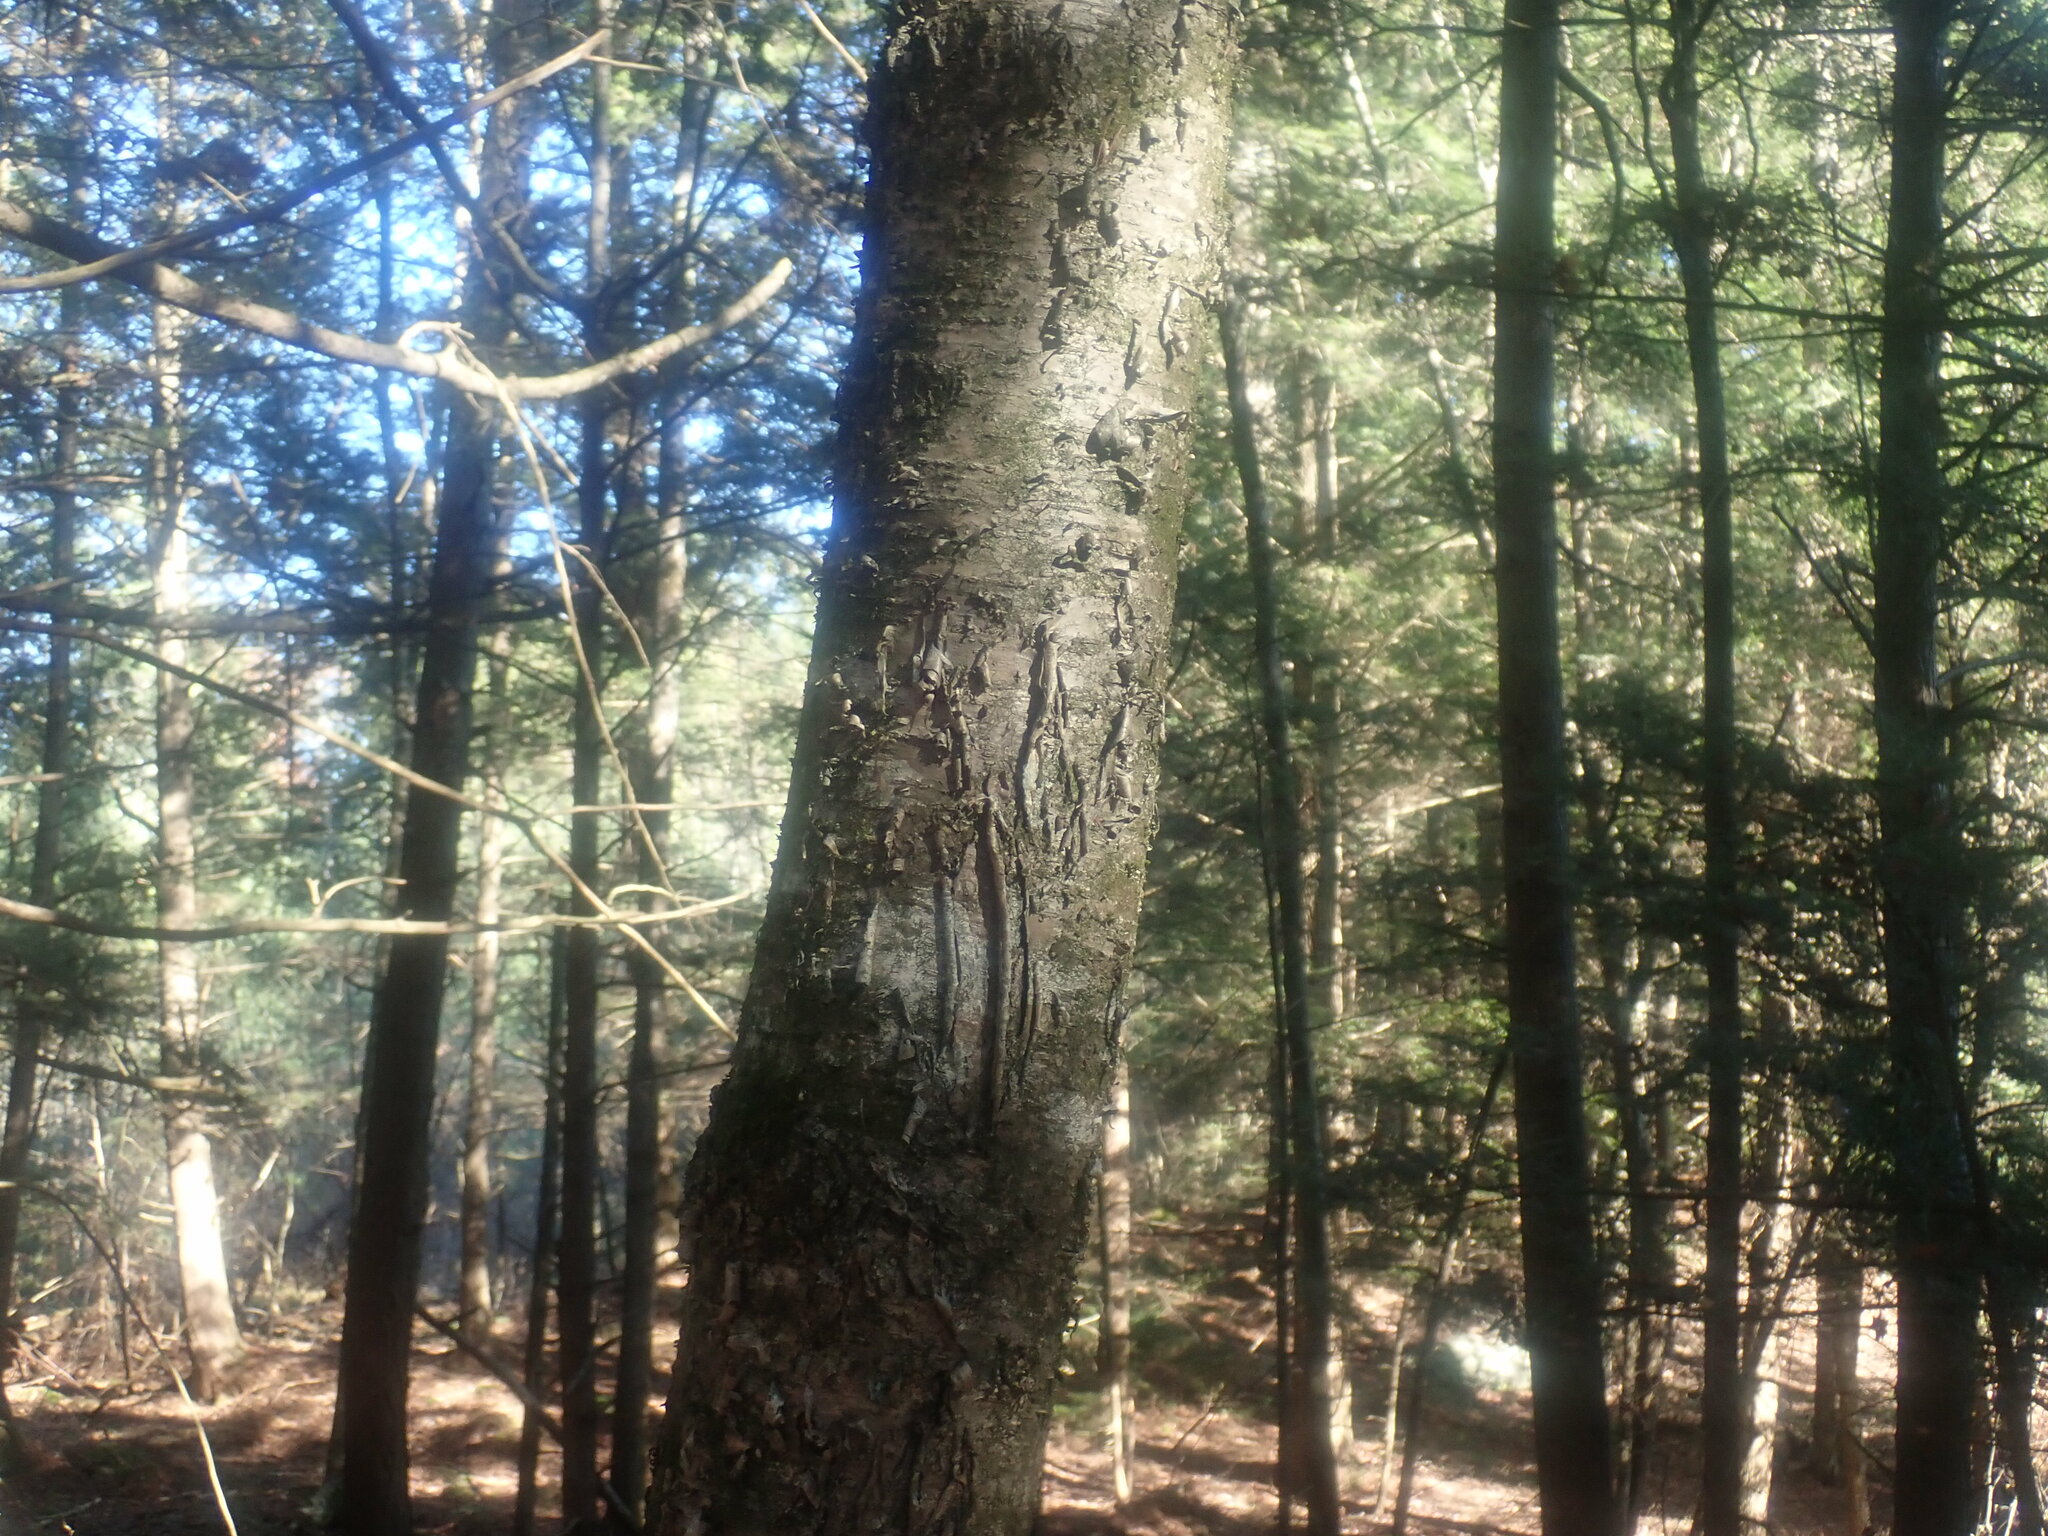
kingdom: Plantae
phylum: Tracheophyta
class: Magnoliopsida
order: Fagales
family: Betulaceae
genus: Betula
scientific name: Betula alleghaniensis
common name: Yellow birch
